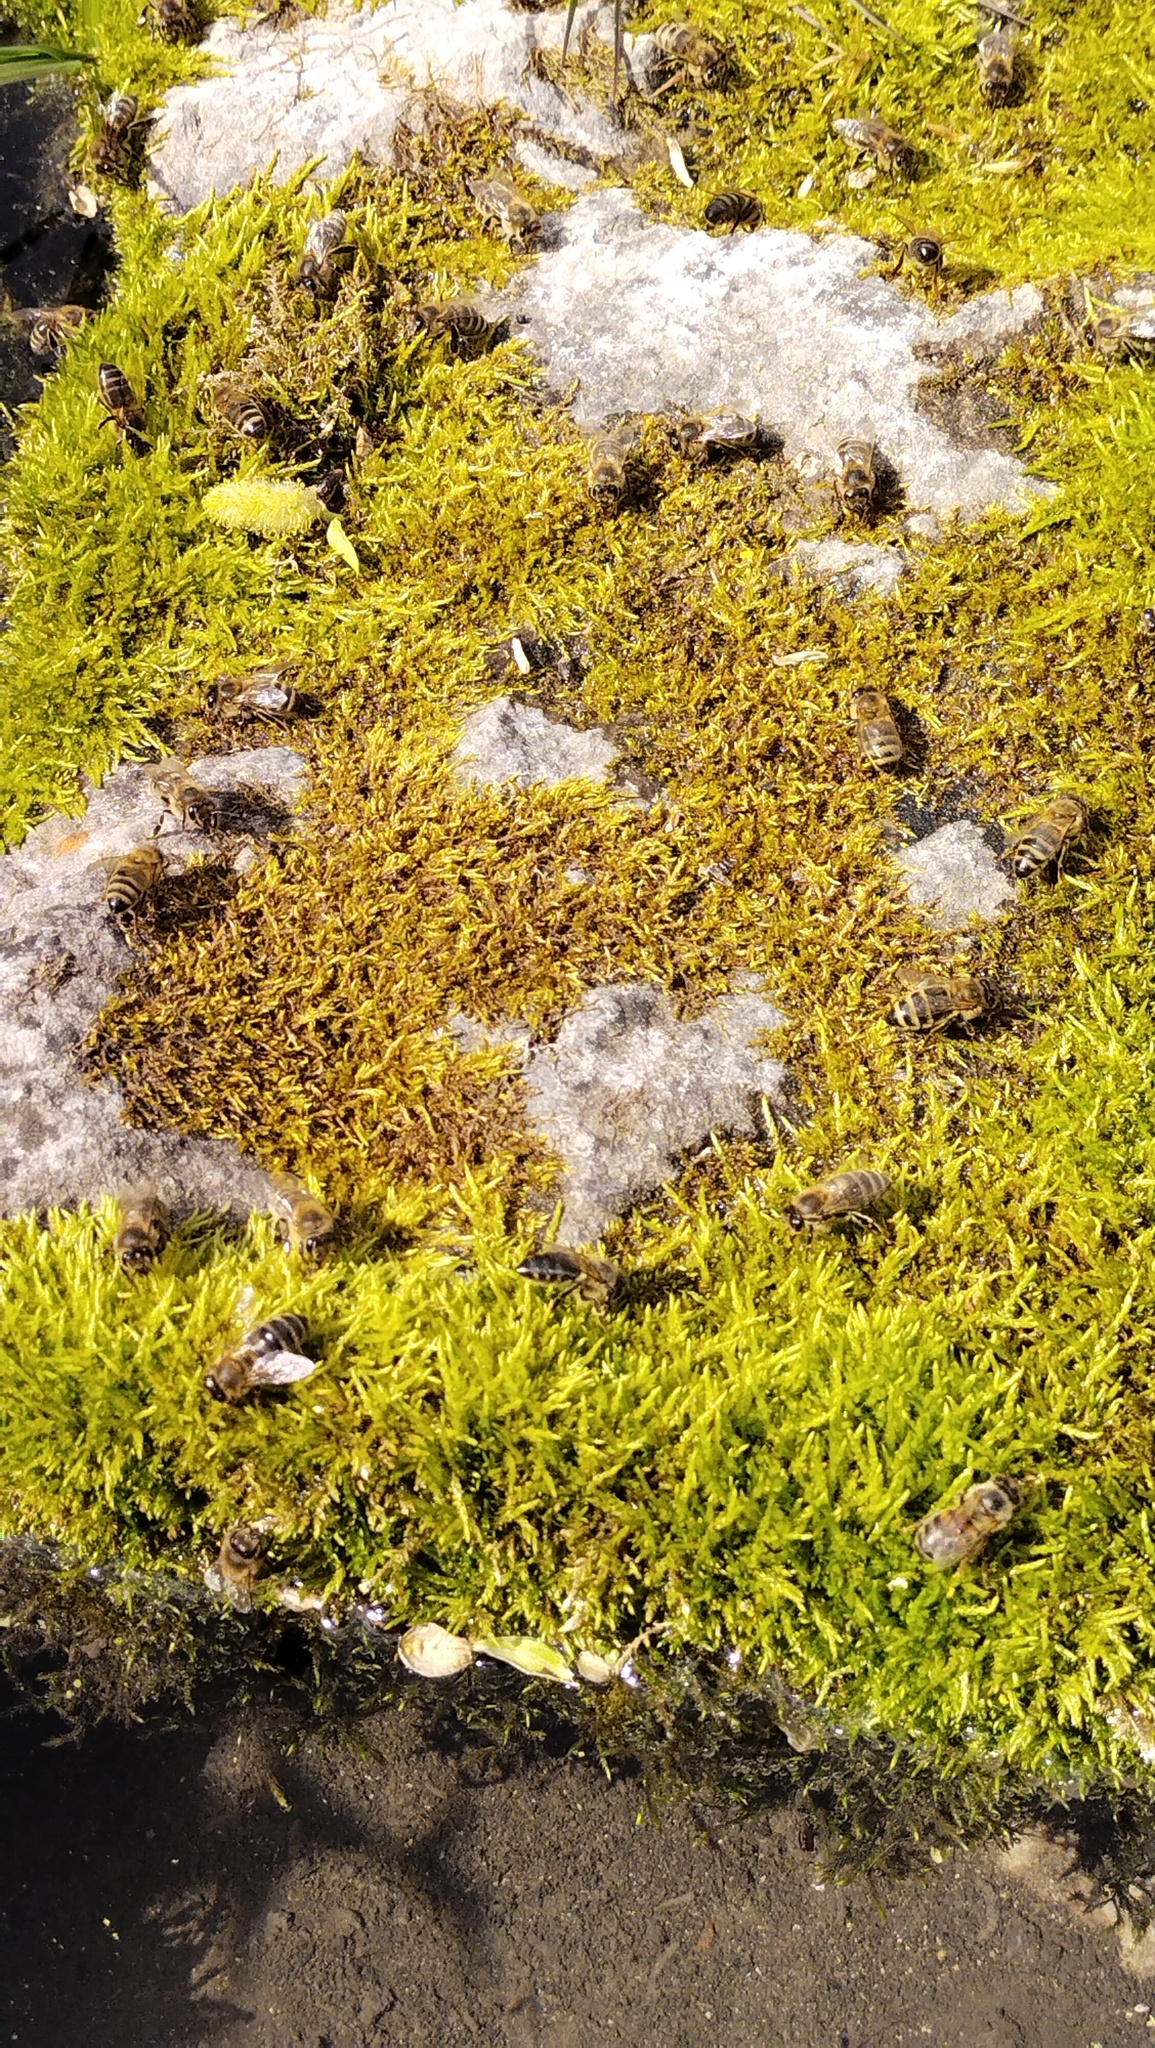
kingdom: Animalia
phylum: Arthropoda
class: Insecta
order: Hymenoptera
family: Apidae
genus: Apis
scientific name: Apis mellifera
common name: Honey bee
